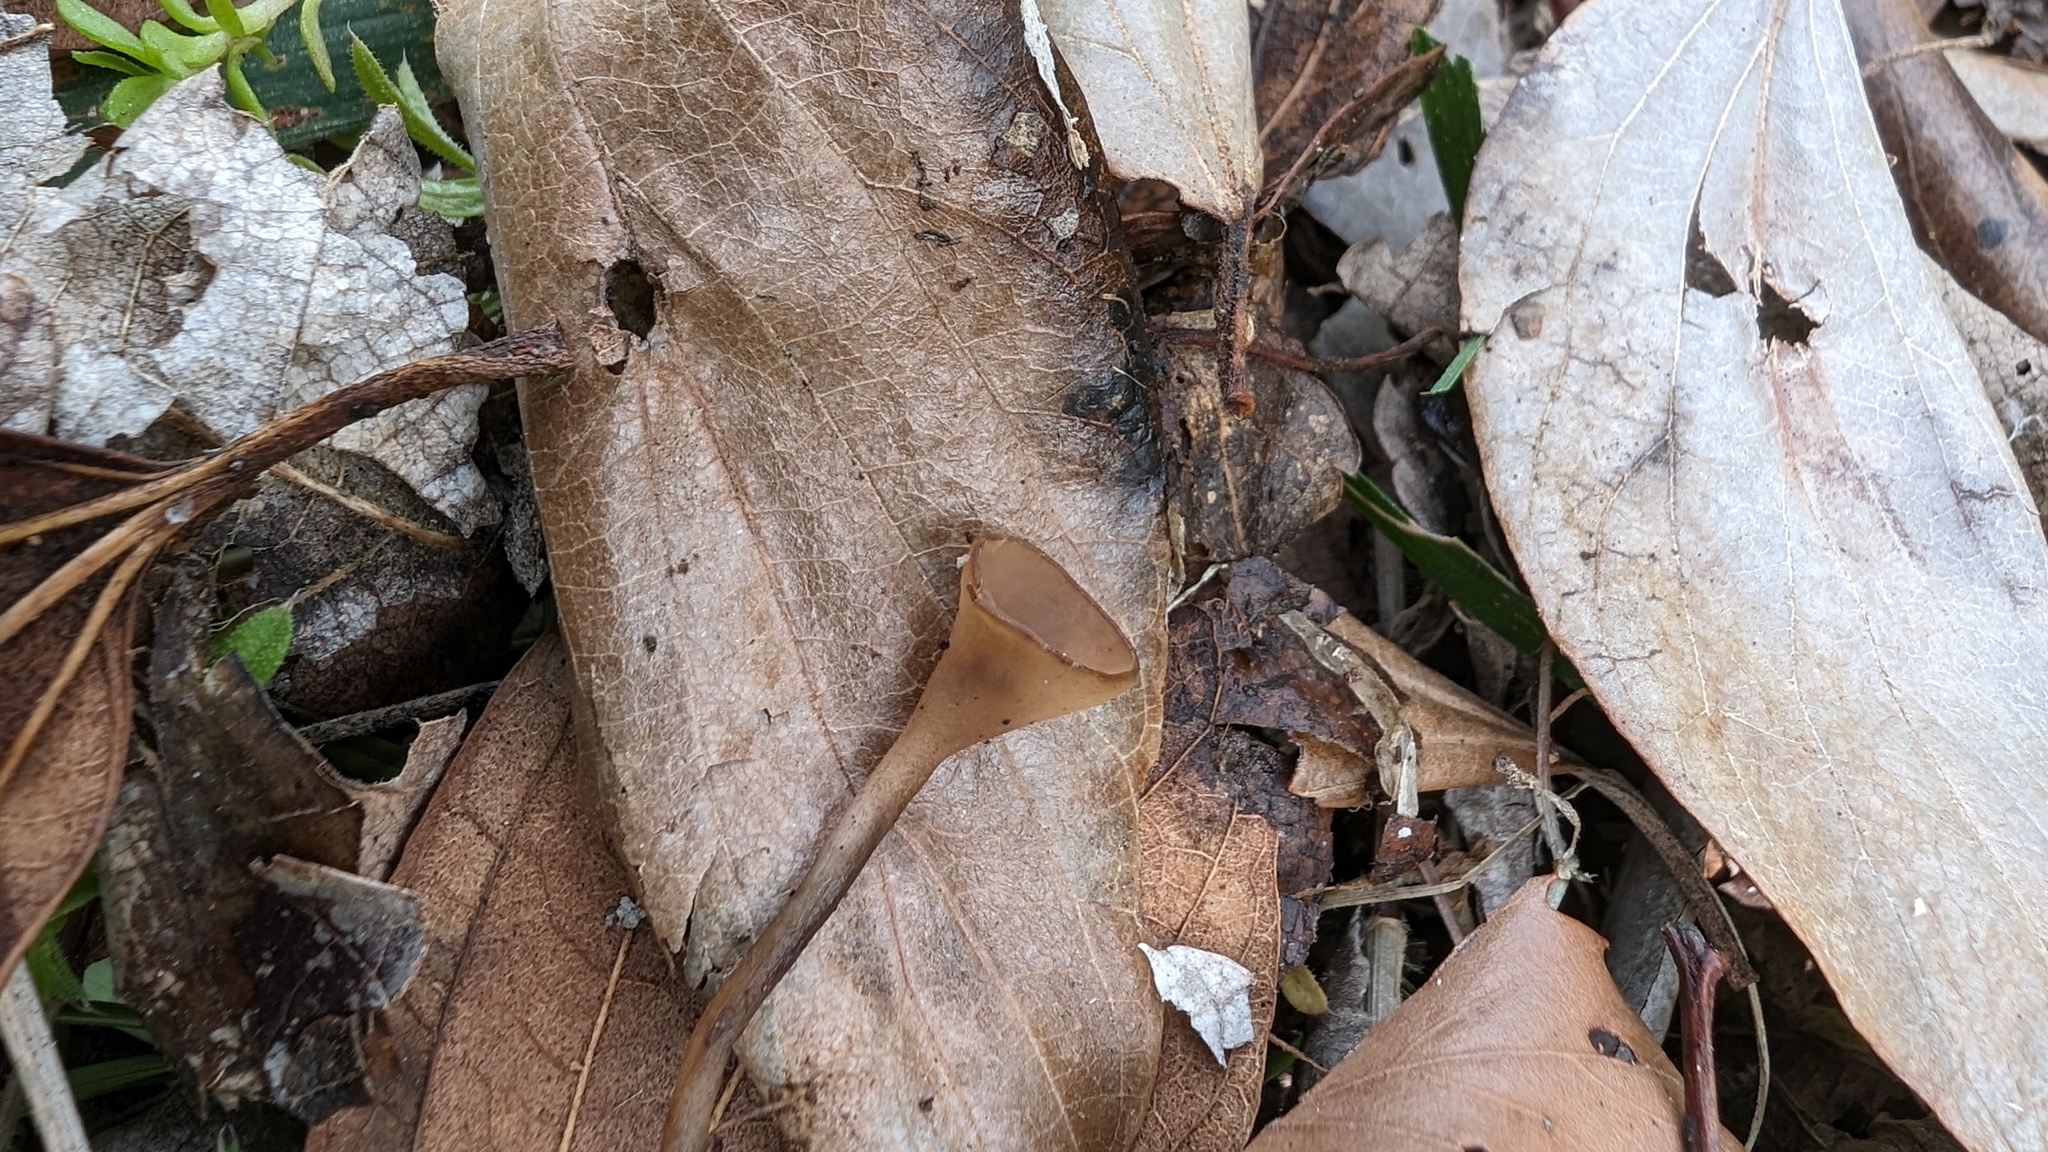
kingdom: Fungi
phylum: Ascomycota
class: Leotiomycetes
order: Helotiales
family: Sclerotiniaceae
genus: Ciboria
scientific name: Ciboria shiraiana
